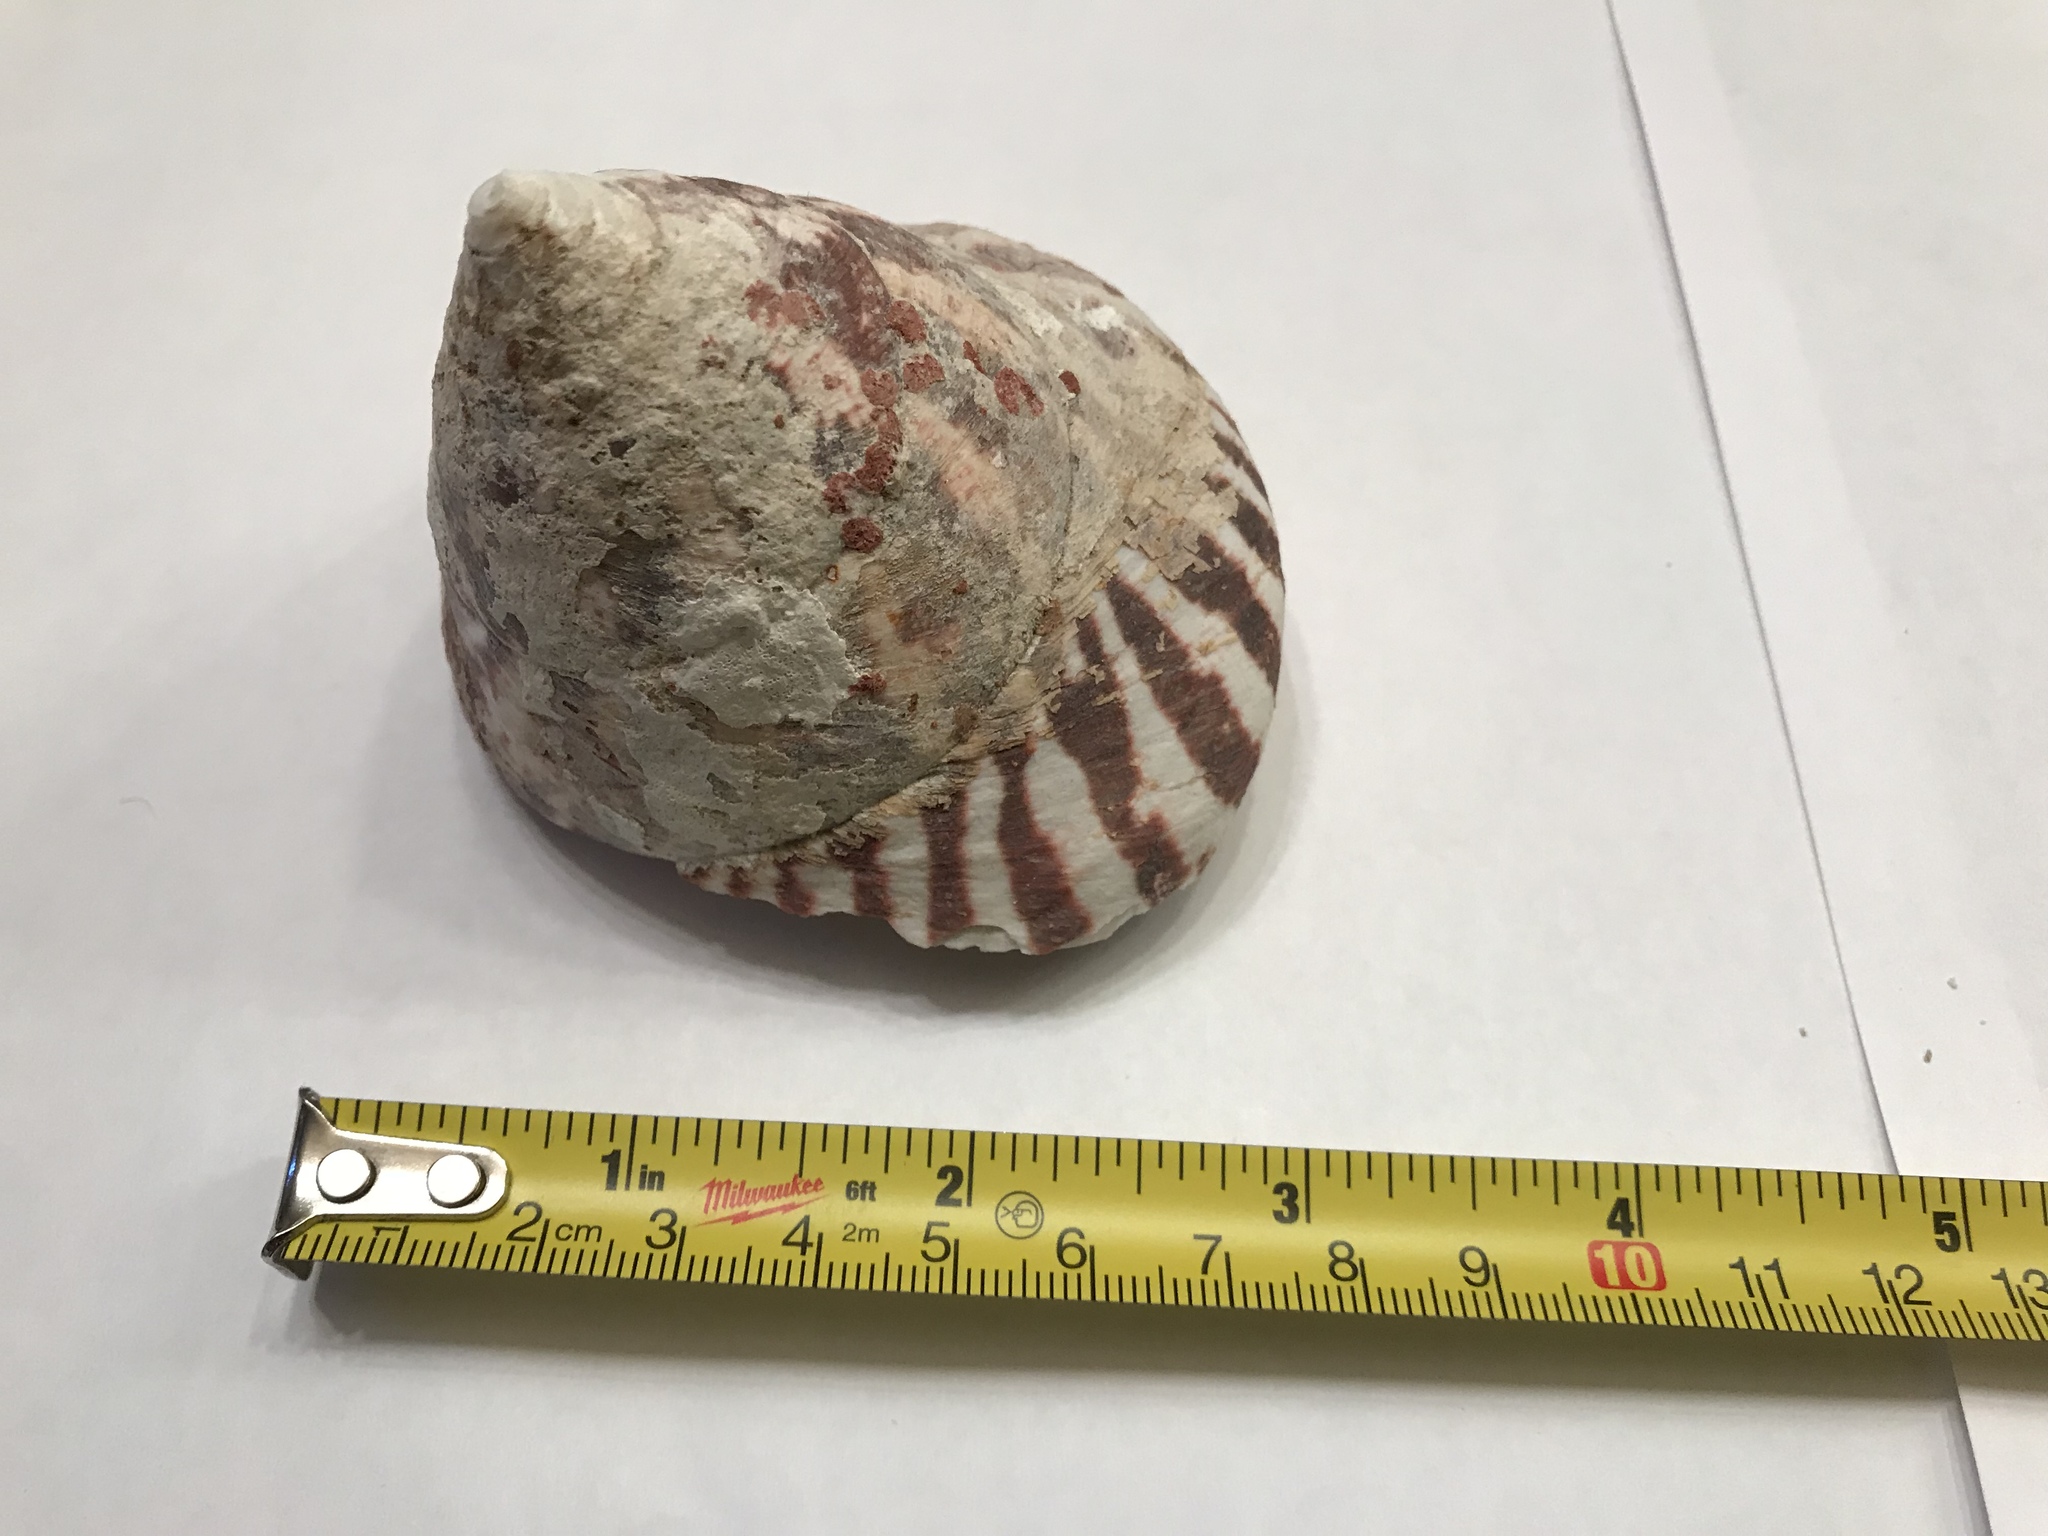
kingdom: Animalia
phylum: Mollusca
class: Gastropoda
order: Trochida
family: Tegulidae
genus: Rochia
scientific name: Rochia nilotica
